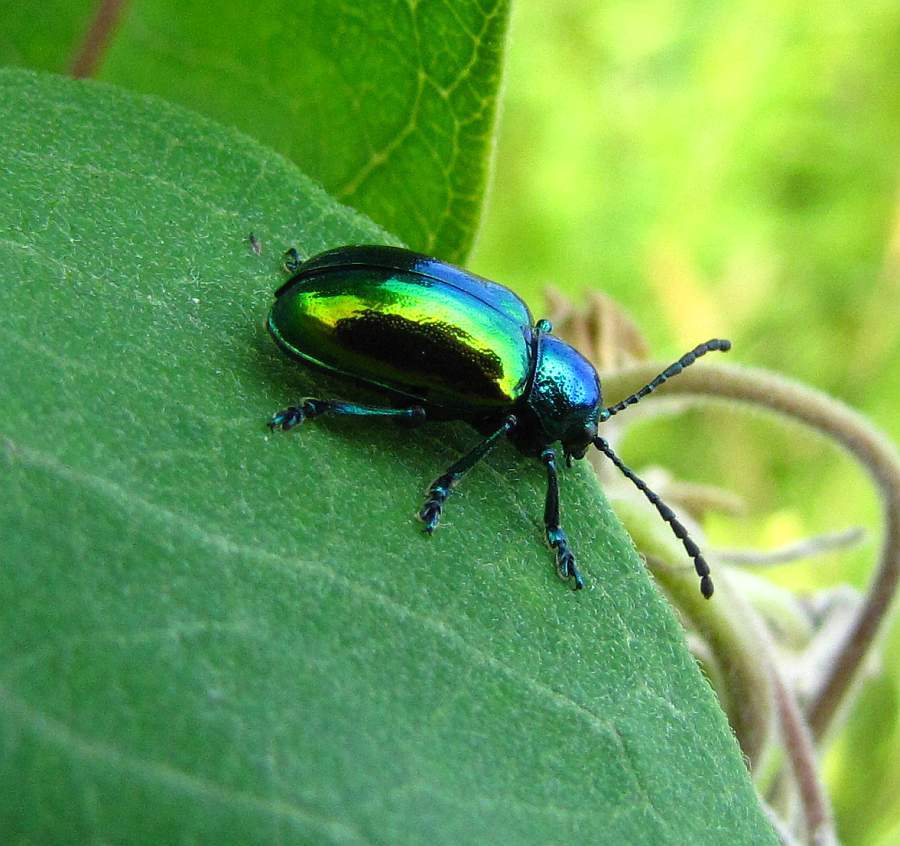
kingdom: Animalia
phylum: Arthropoda
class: Insecta
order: Coleoptera
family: Chrysomelidae
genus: Chrysochus
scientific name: Chrysochus auratus
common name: Dogbane leaf beetle
